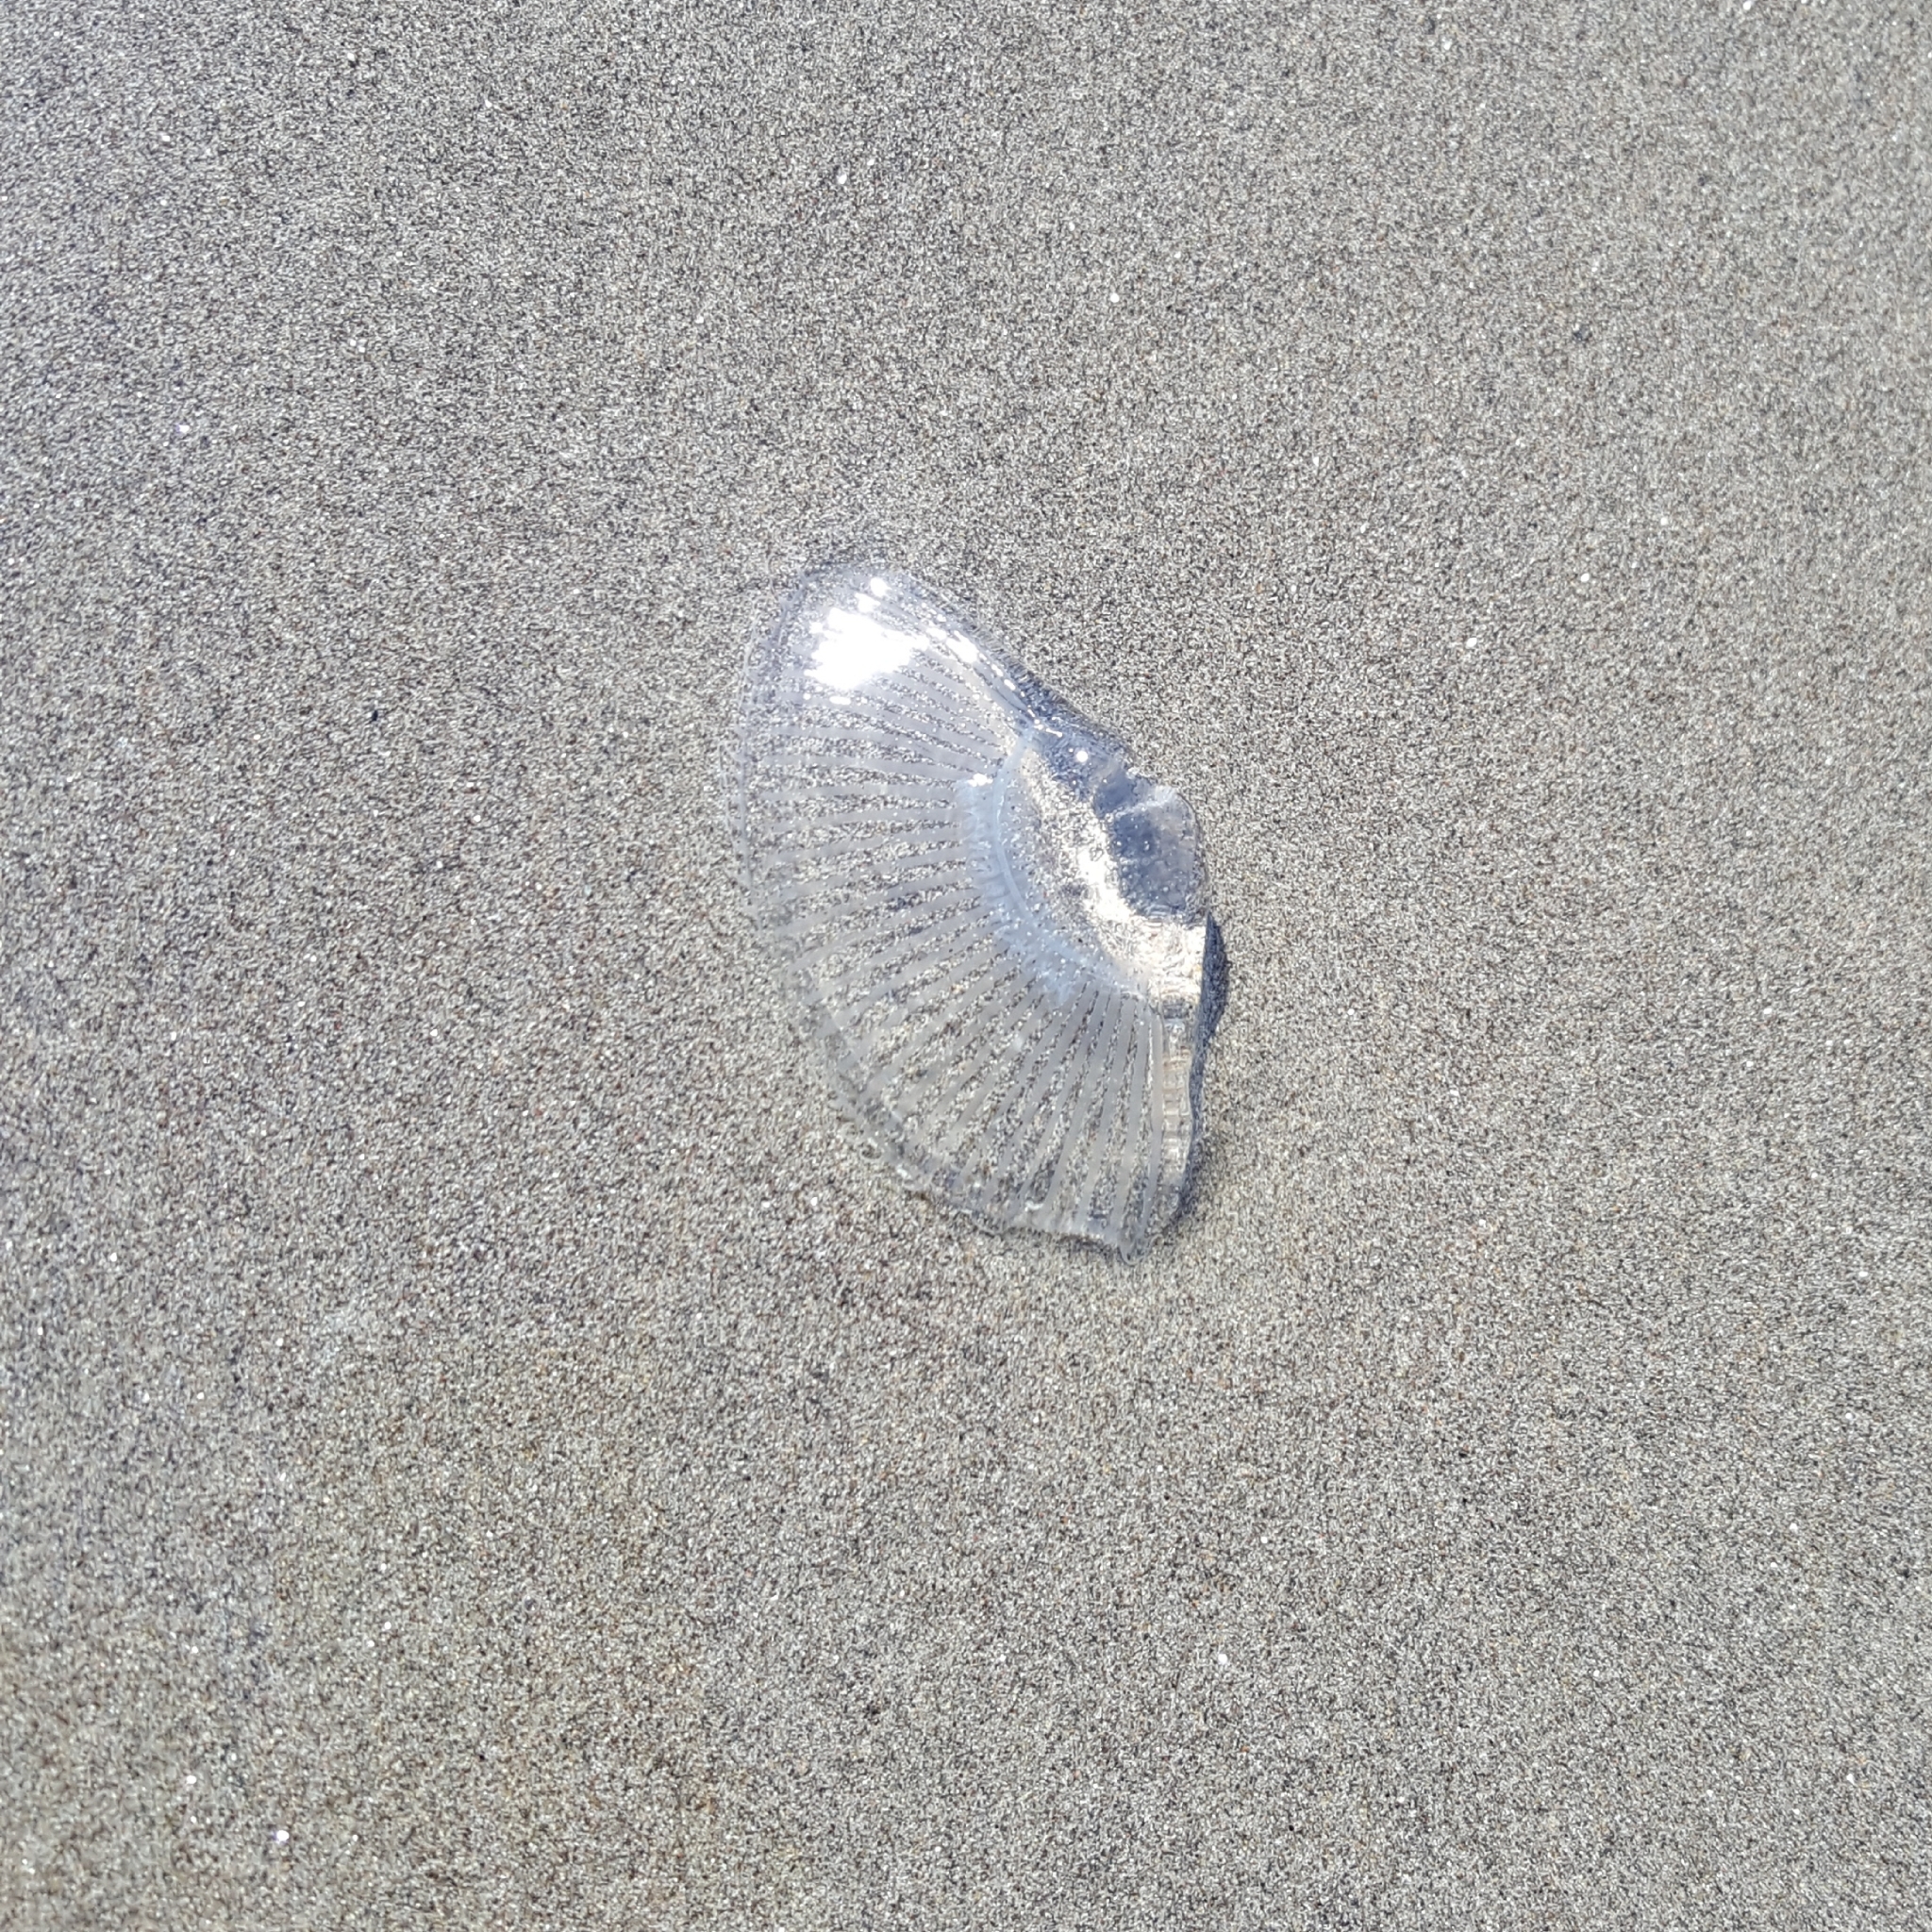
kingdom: Animalia
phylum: Cnidaria
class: Hydrozoa
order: Leptothecata
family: Aequoreidae
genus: Aequorea
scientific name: Aequorea victoria
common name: Water jellyfish
